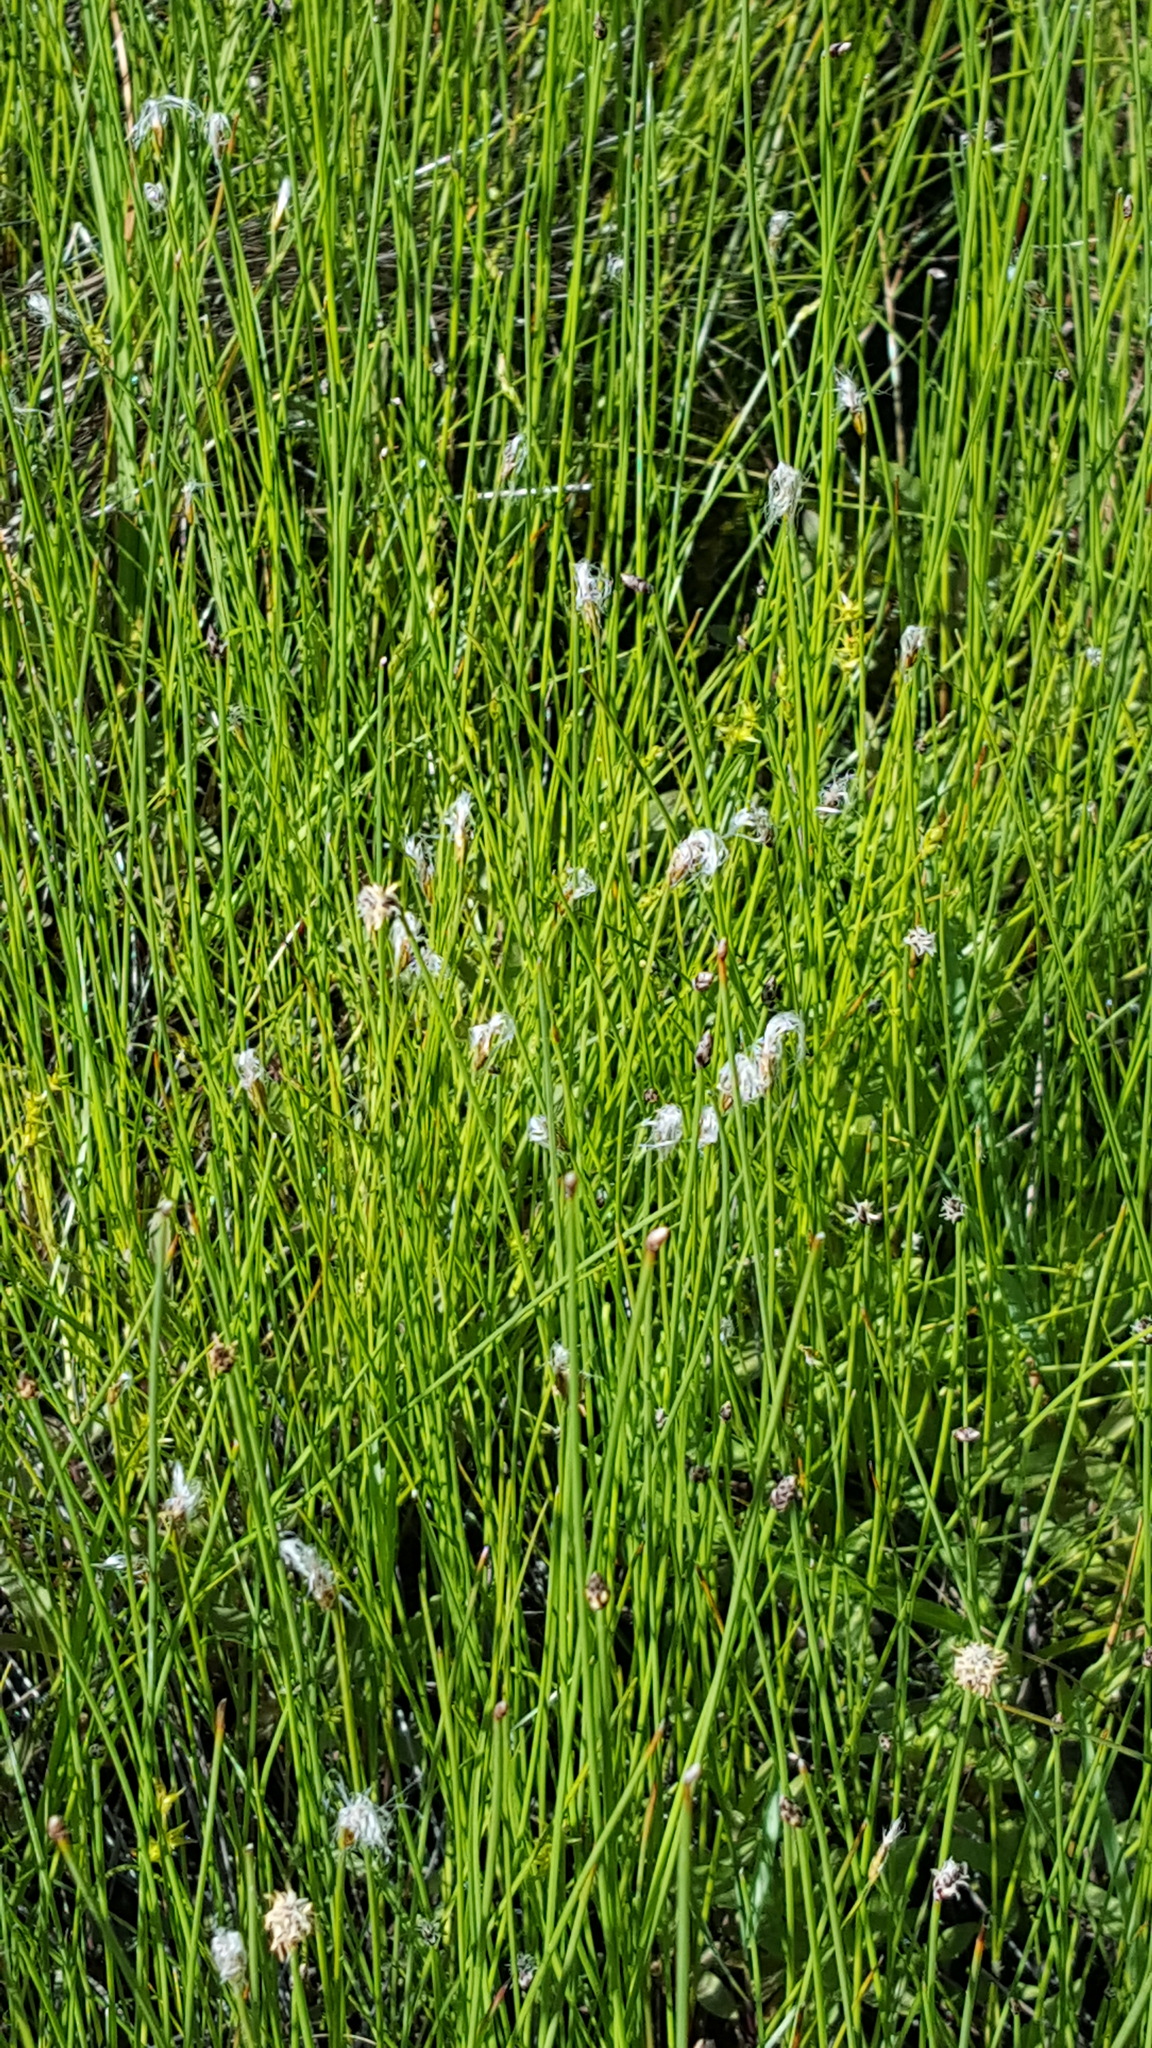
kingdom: Plantae
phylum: Tracheophyta
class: Liliopsida
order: Poales
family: Cyperaceae
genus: Trichophorum
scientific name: Trichophorum alpinum
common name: Alpine bulrush
